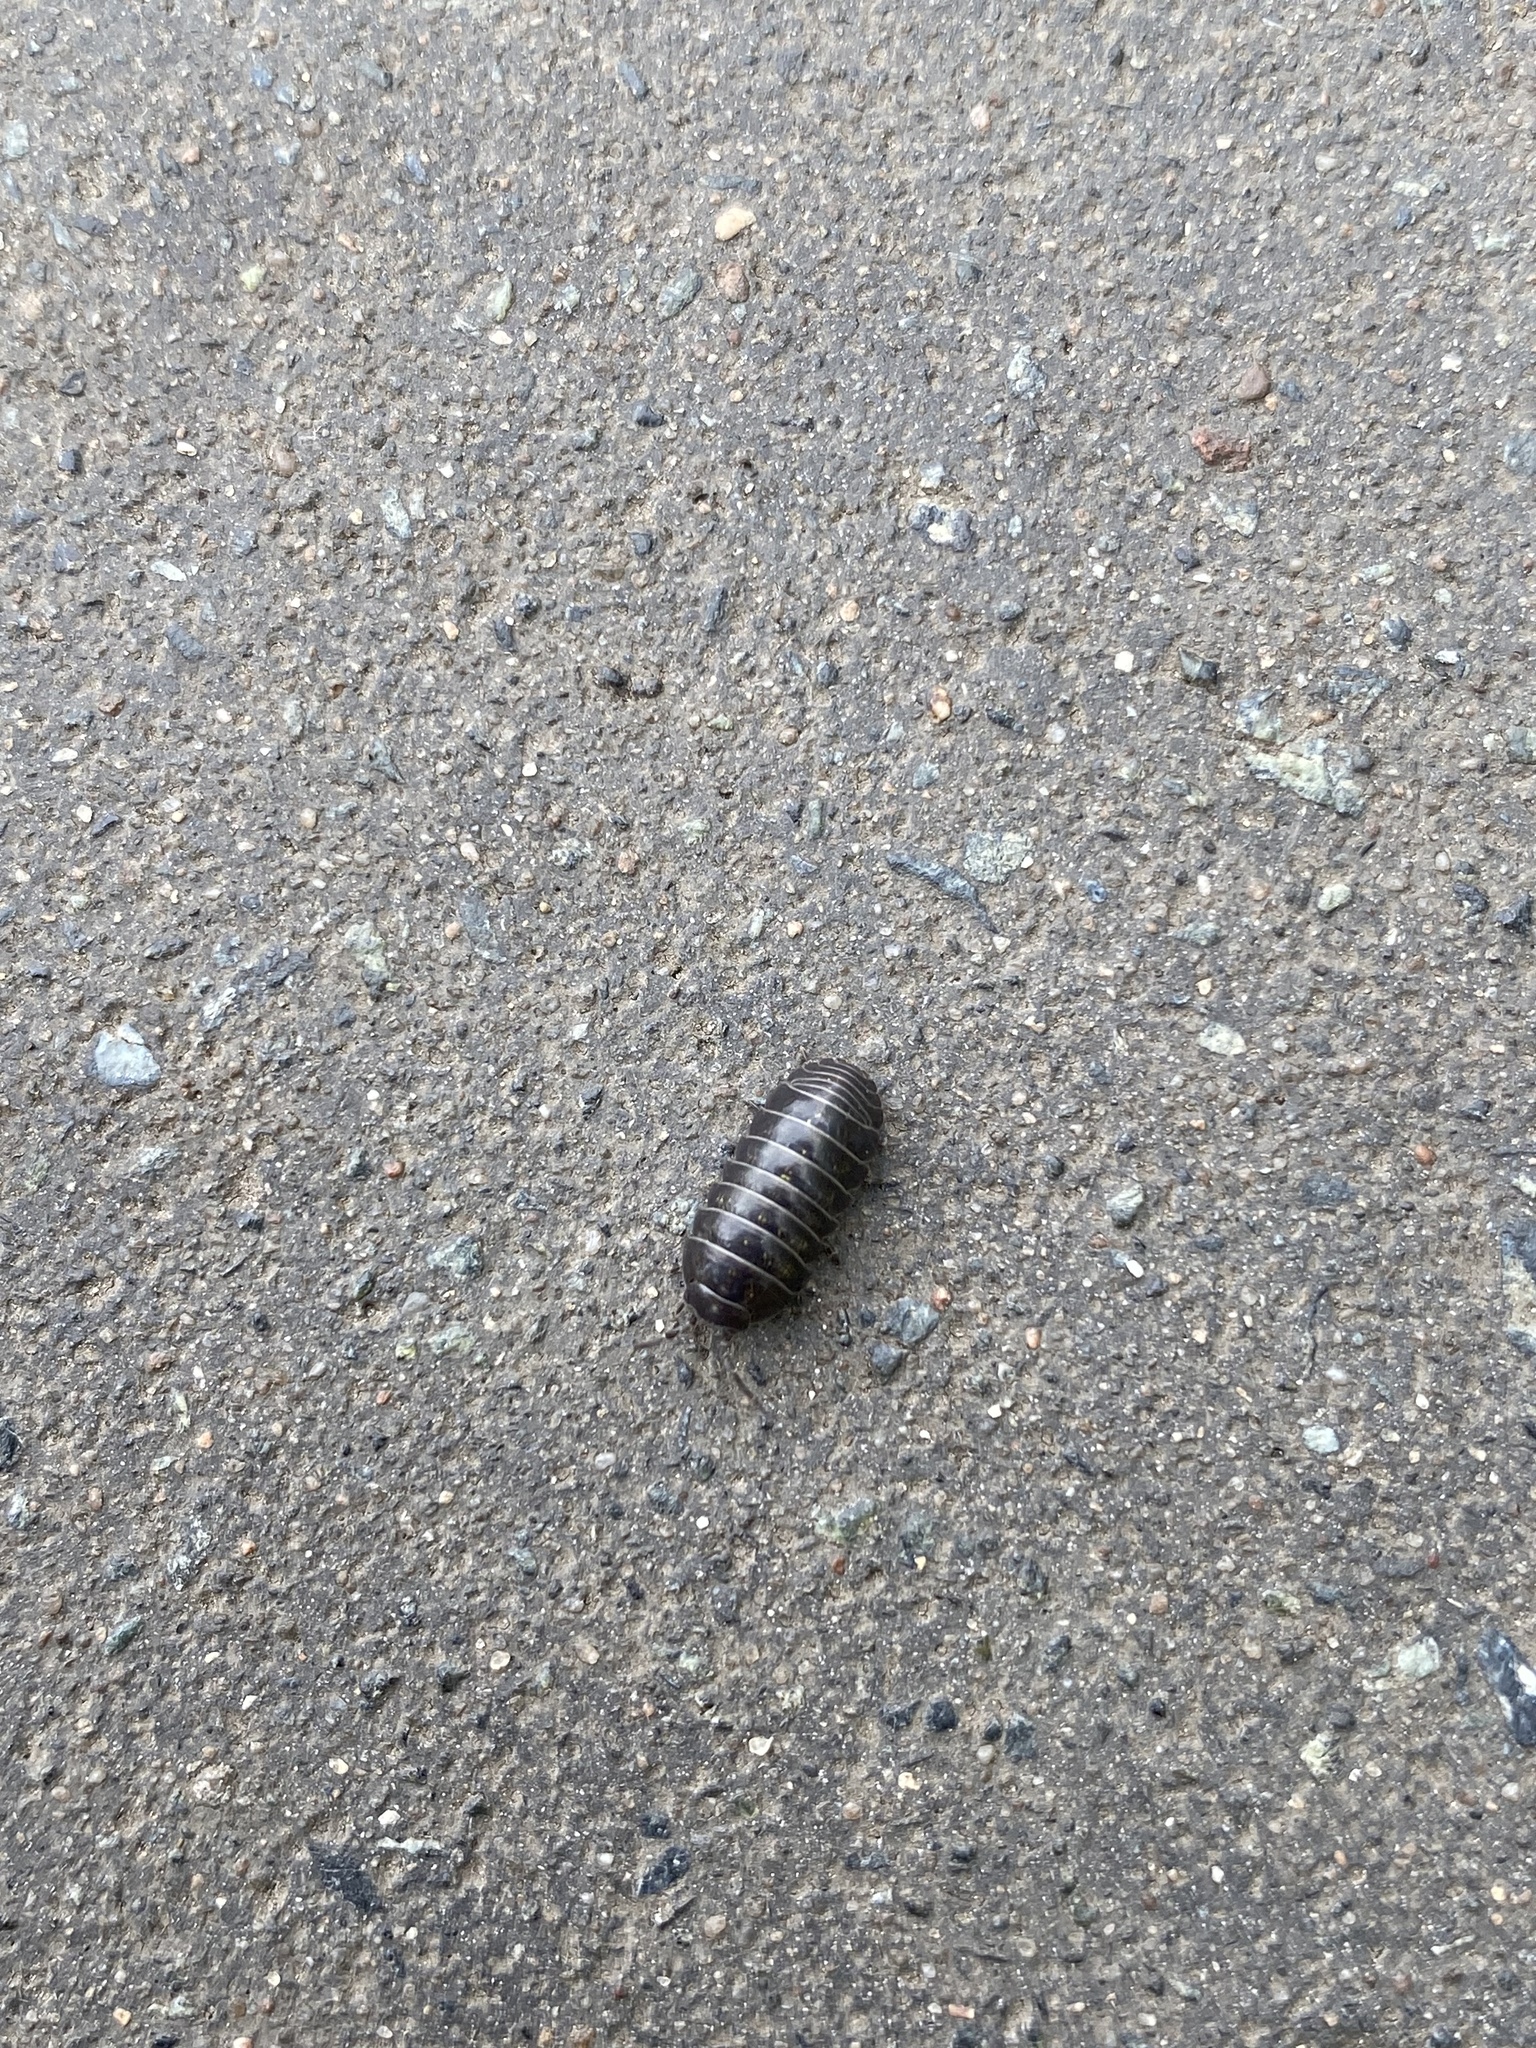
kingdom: Animalia
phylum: Arthropoda
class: Malacostraca
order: Isopoda
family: Armadillidiidae
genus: Armadillidium
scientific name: Armadillidium vulgare
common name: Common pill woodlouse
